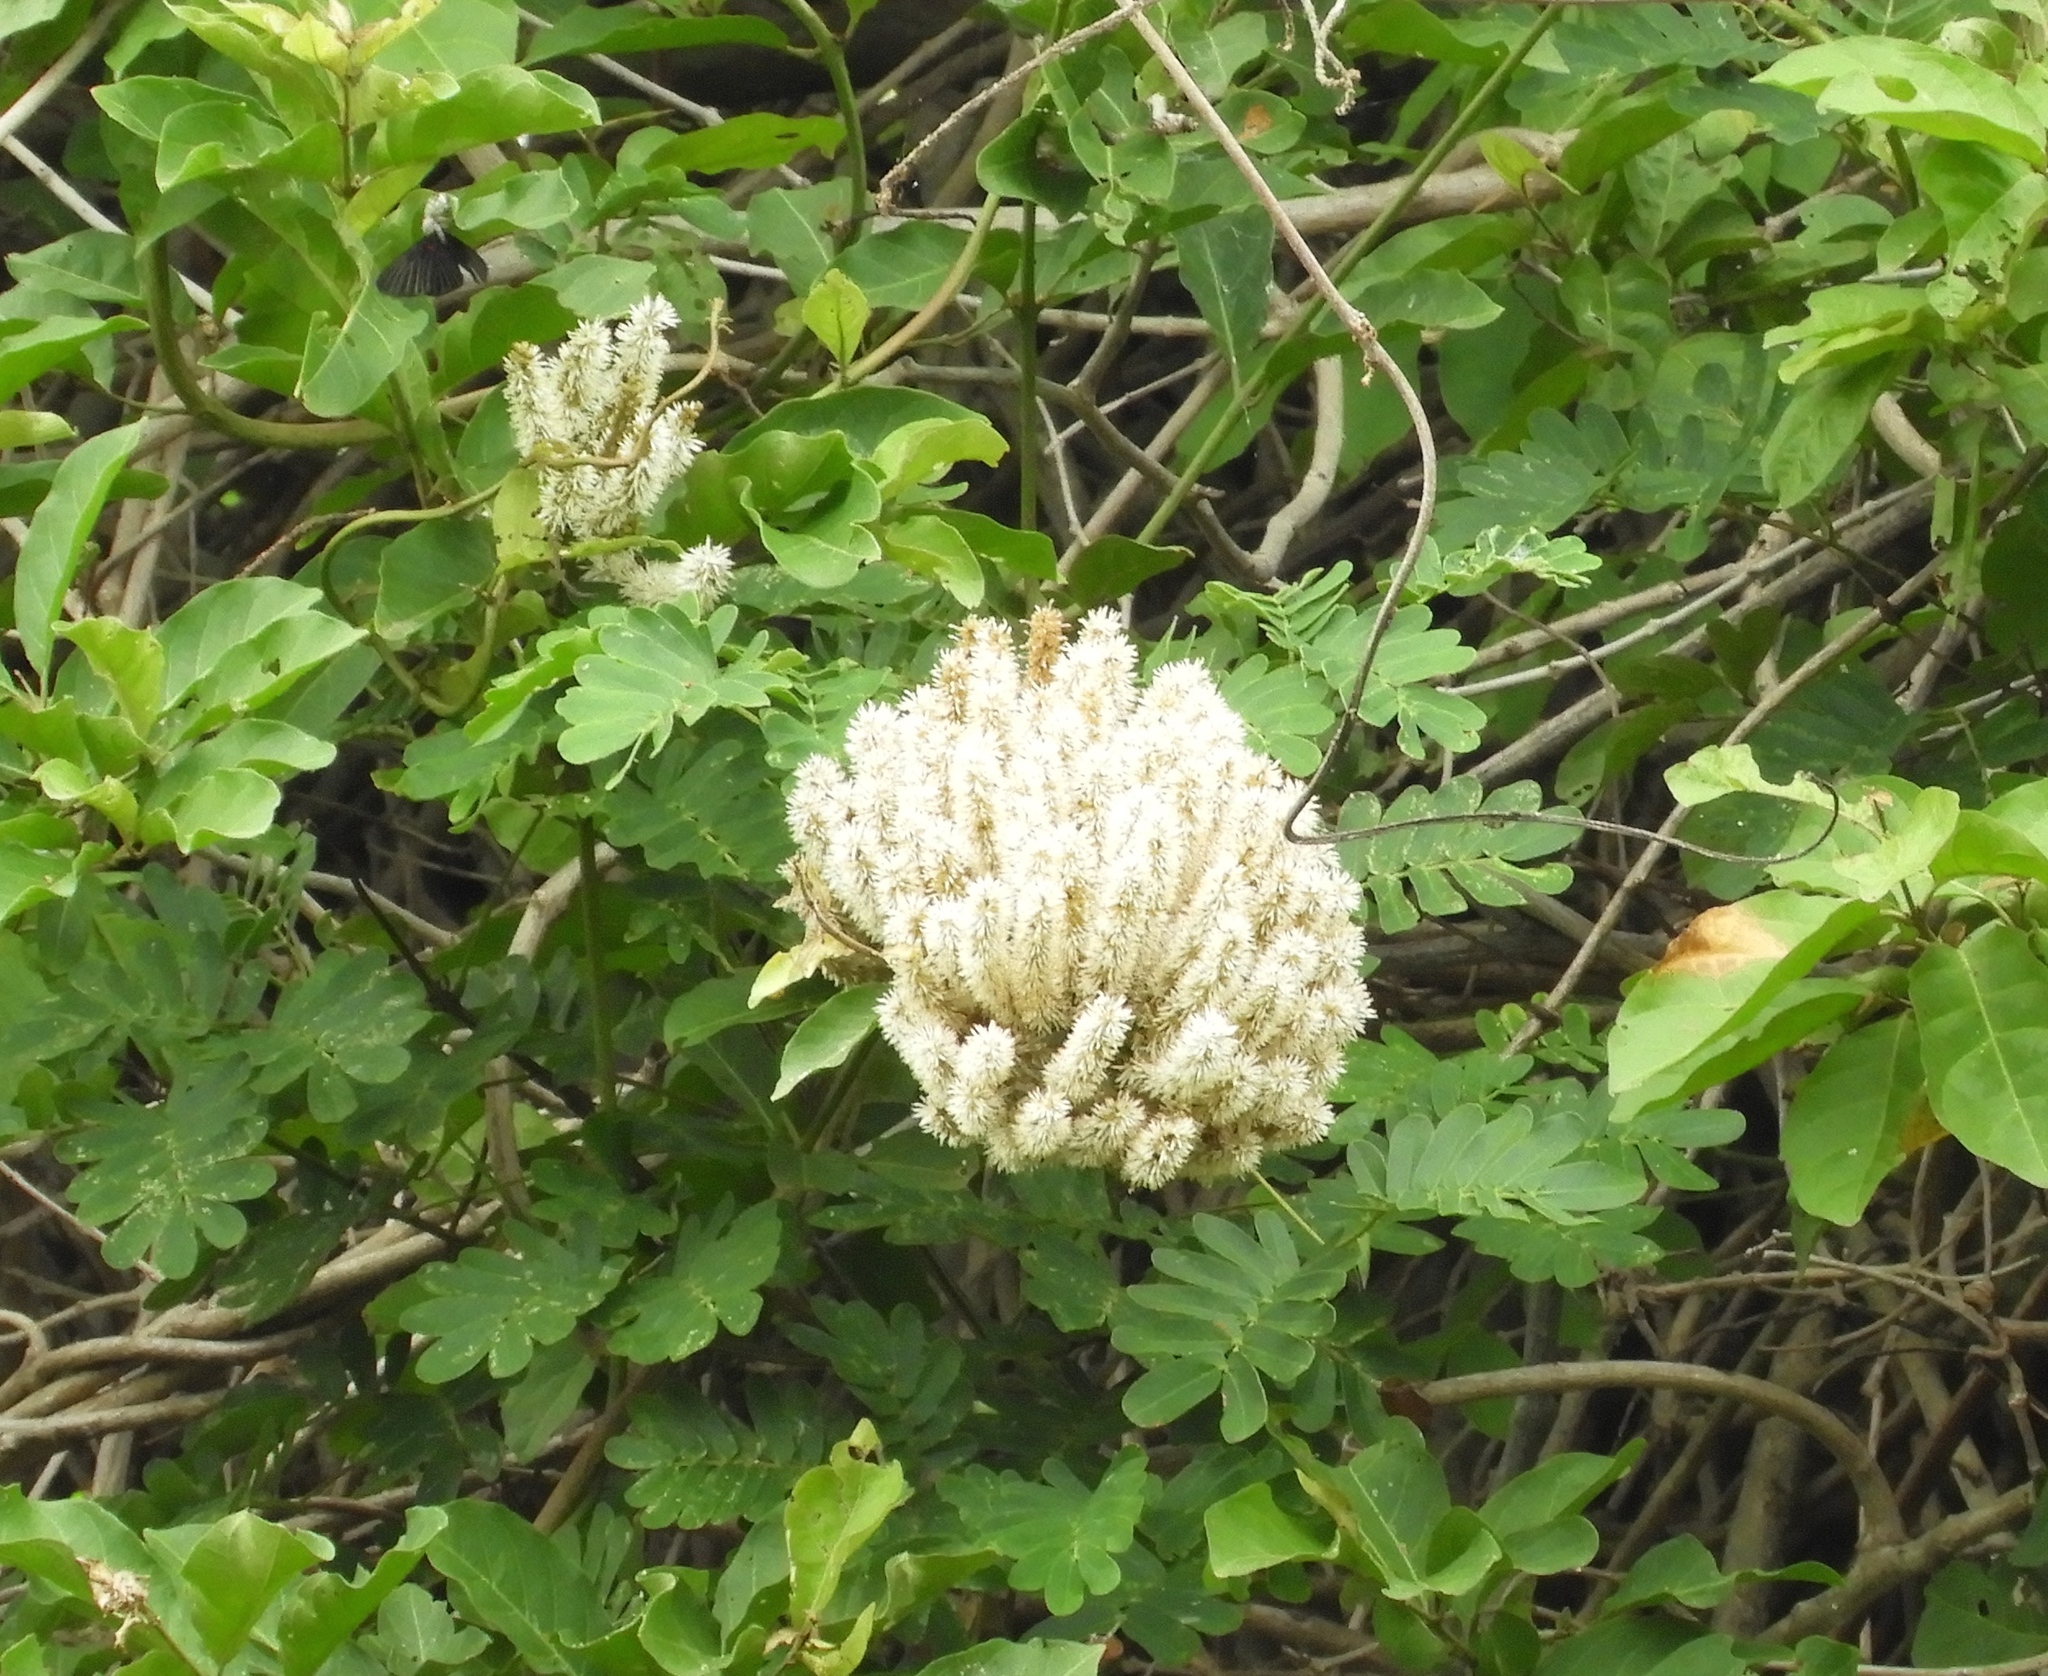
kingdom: Plantae
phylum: Tracheophyta
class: Magnoliopsida
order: Fabales
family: Fabaceae
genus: Entada
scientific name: Entada polystachya
